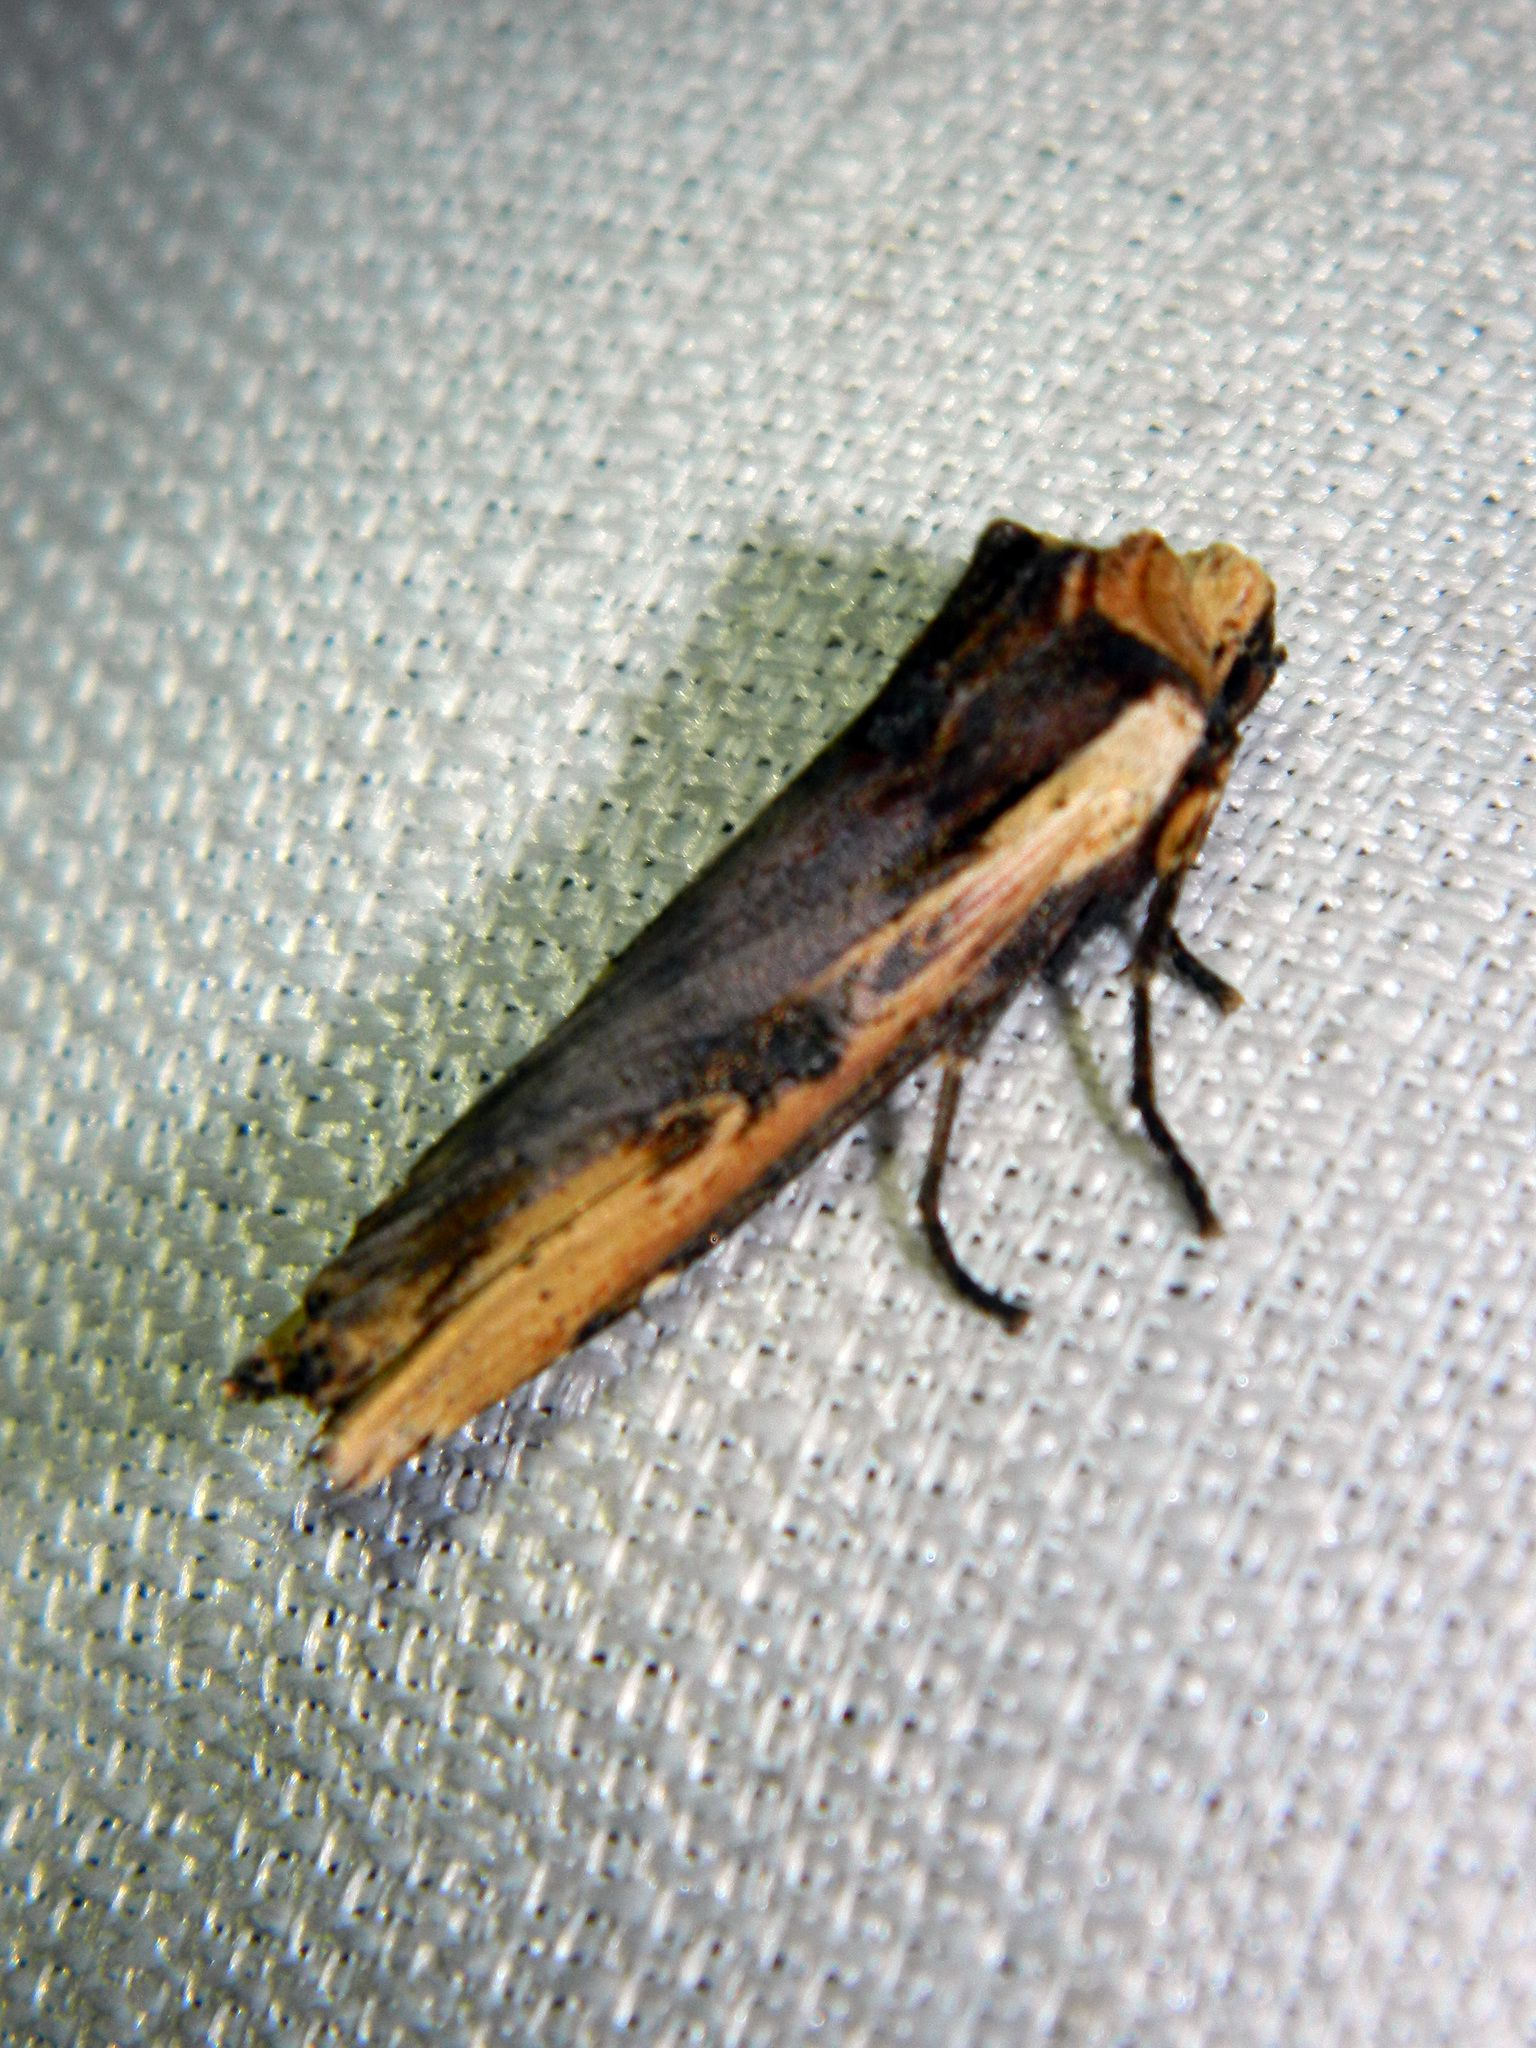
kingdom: Animalia
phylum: Arthropoda
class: Insecta
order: Lepidoptera
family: Noctuidae
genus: Xylena
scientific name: Xylena curvimacula
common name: Dot-and-dash swordgrass moth
